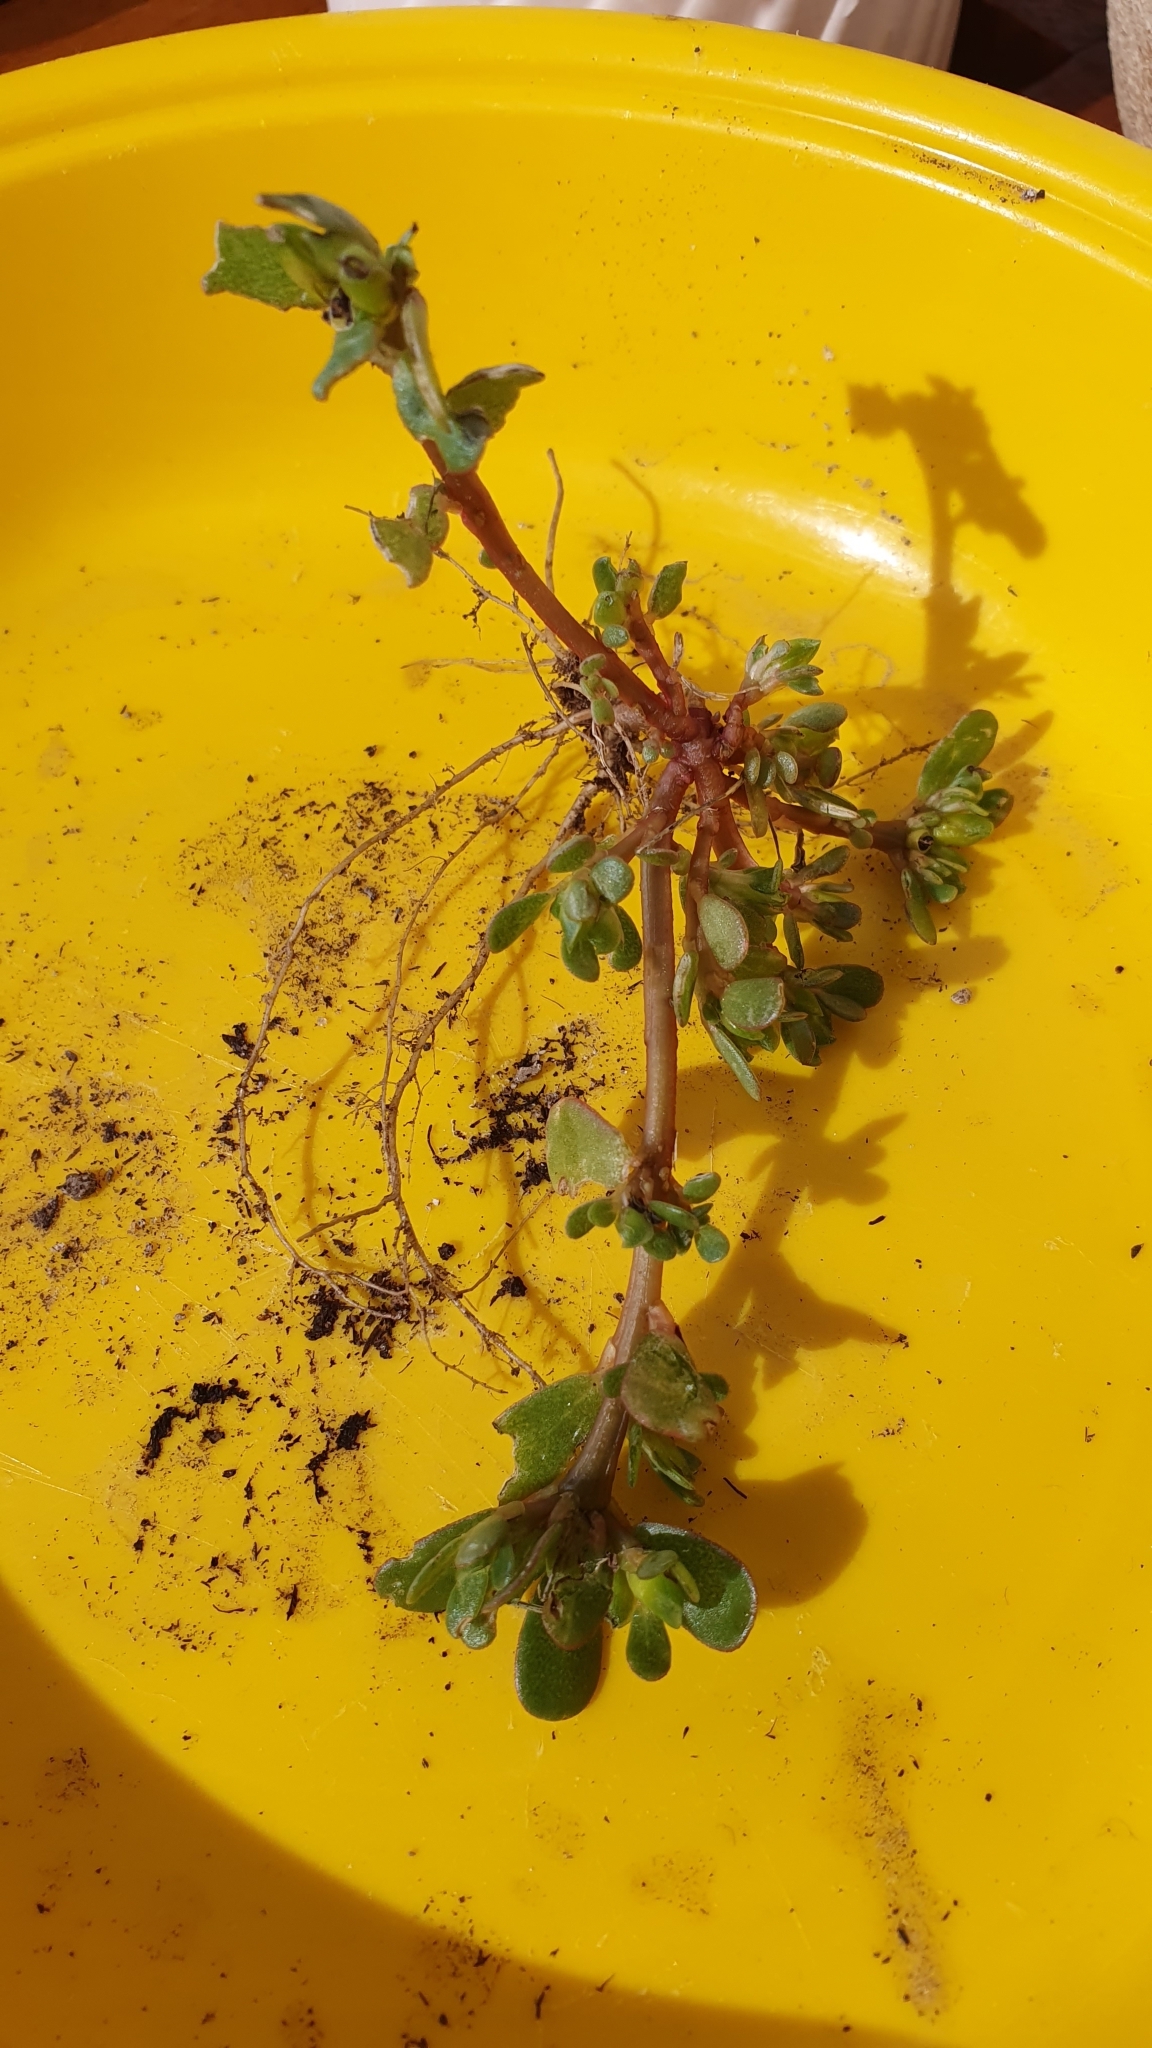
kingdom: Plantae
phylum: Tracheophyta
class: Magnoliopsida
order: Caryophyllales
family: Portulacaceae
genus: Portulaca
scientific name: Portulaca oleracea
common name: Common purslane
